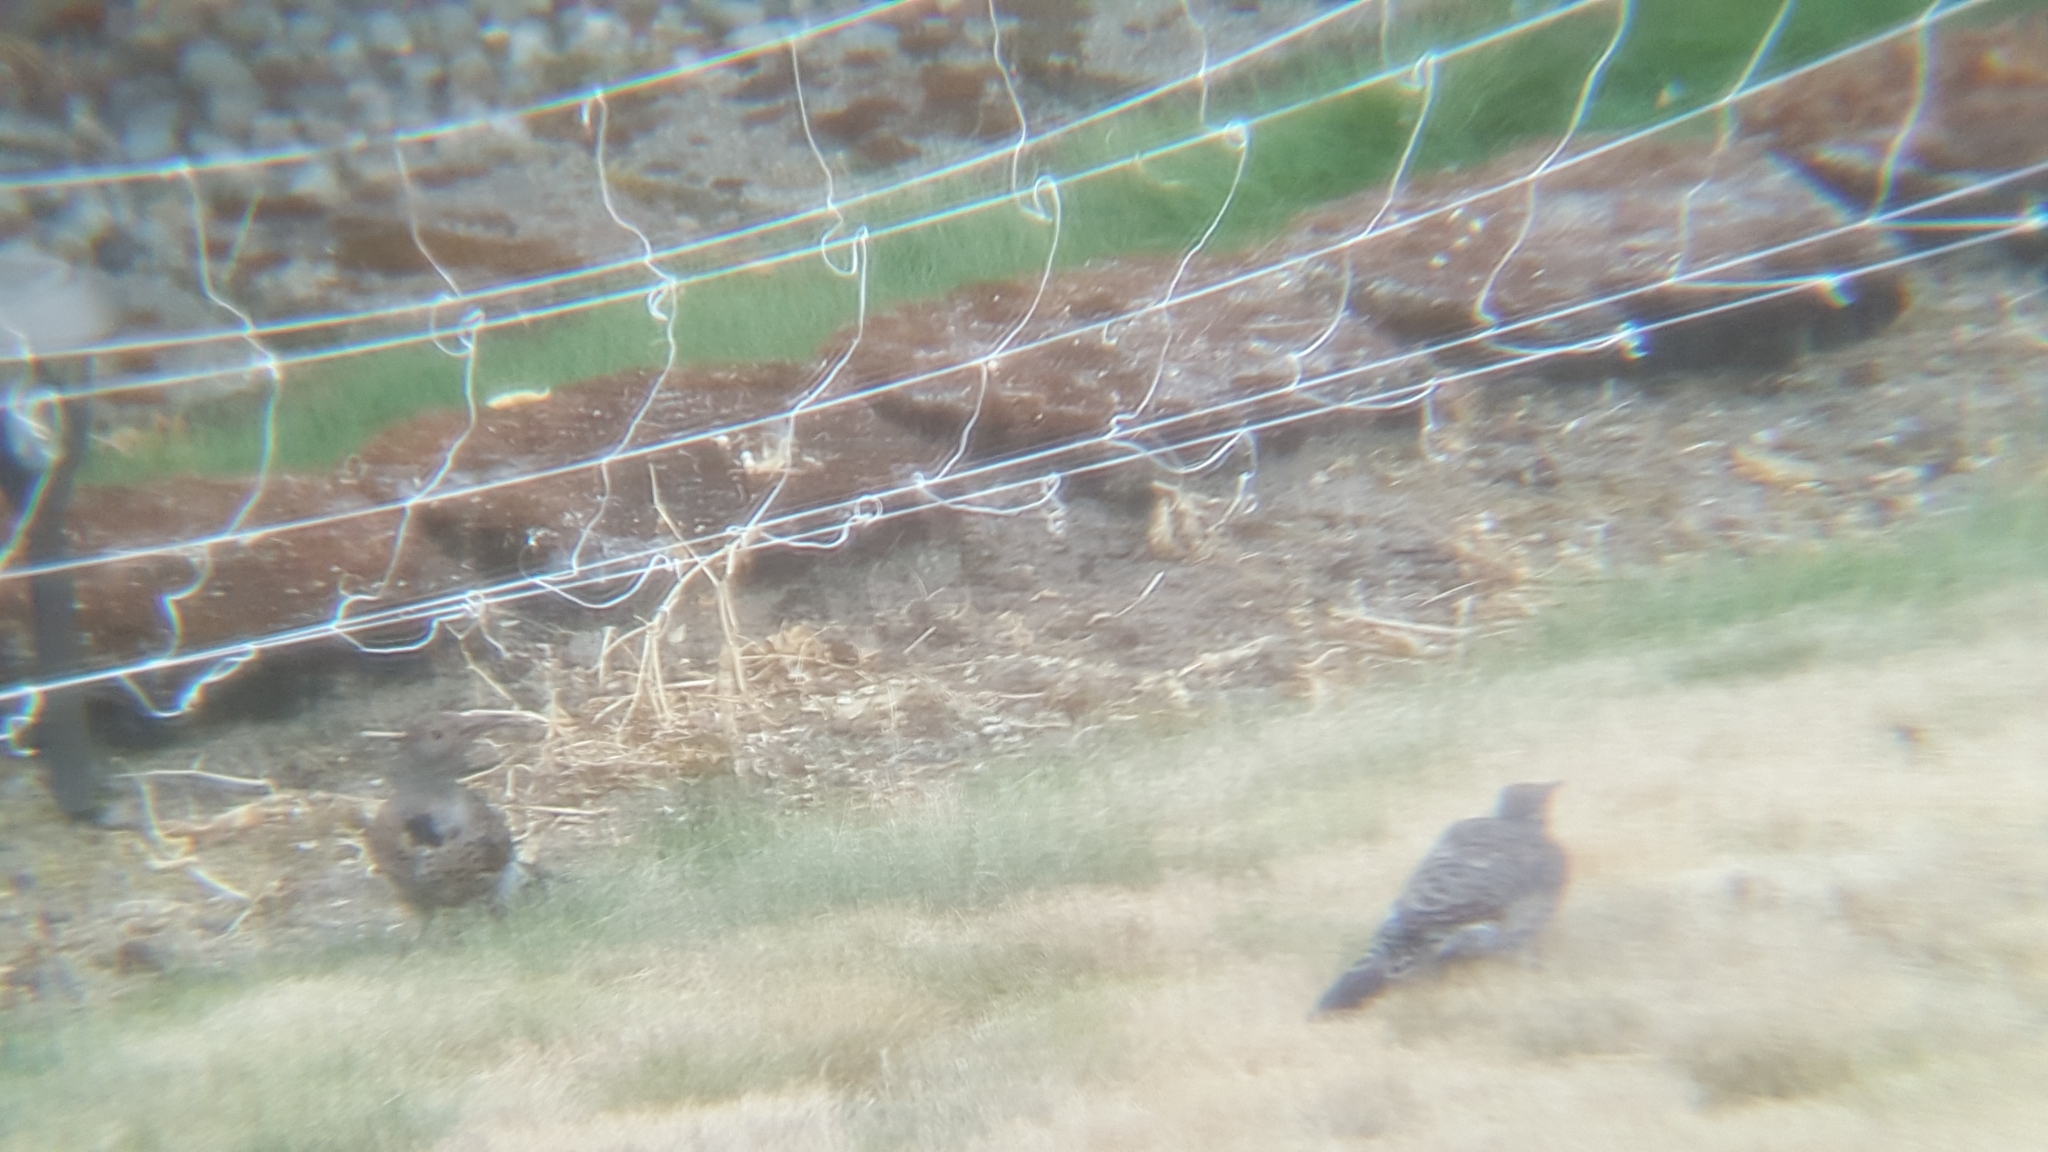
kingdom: Animalia
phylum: Chordata
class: Aves
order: Piciformes
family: Picidae
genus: Colaptes
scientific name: Colaptes auratus
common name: Northern flicker
